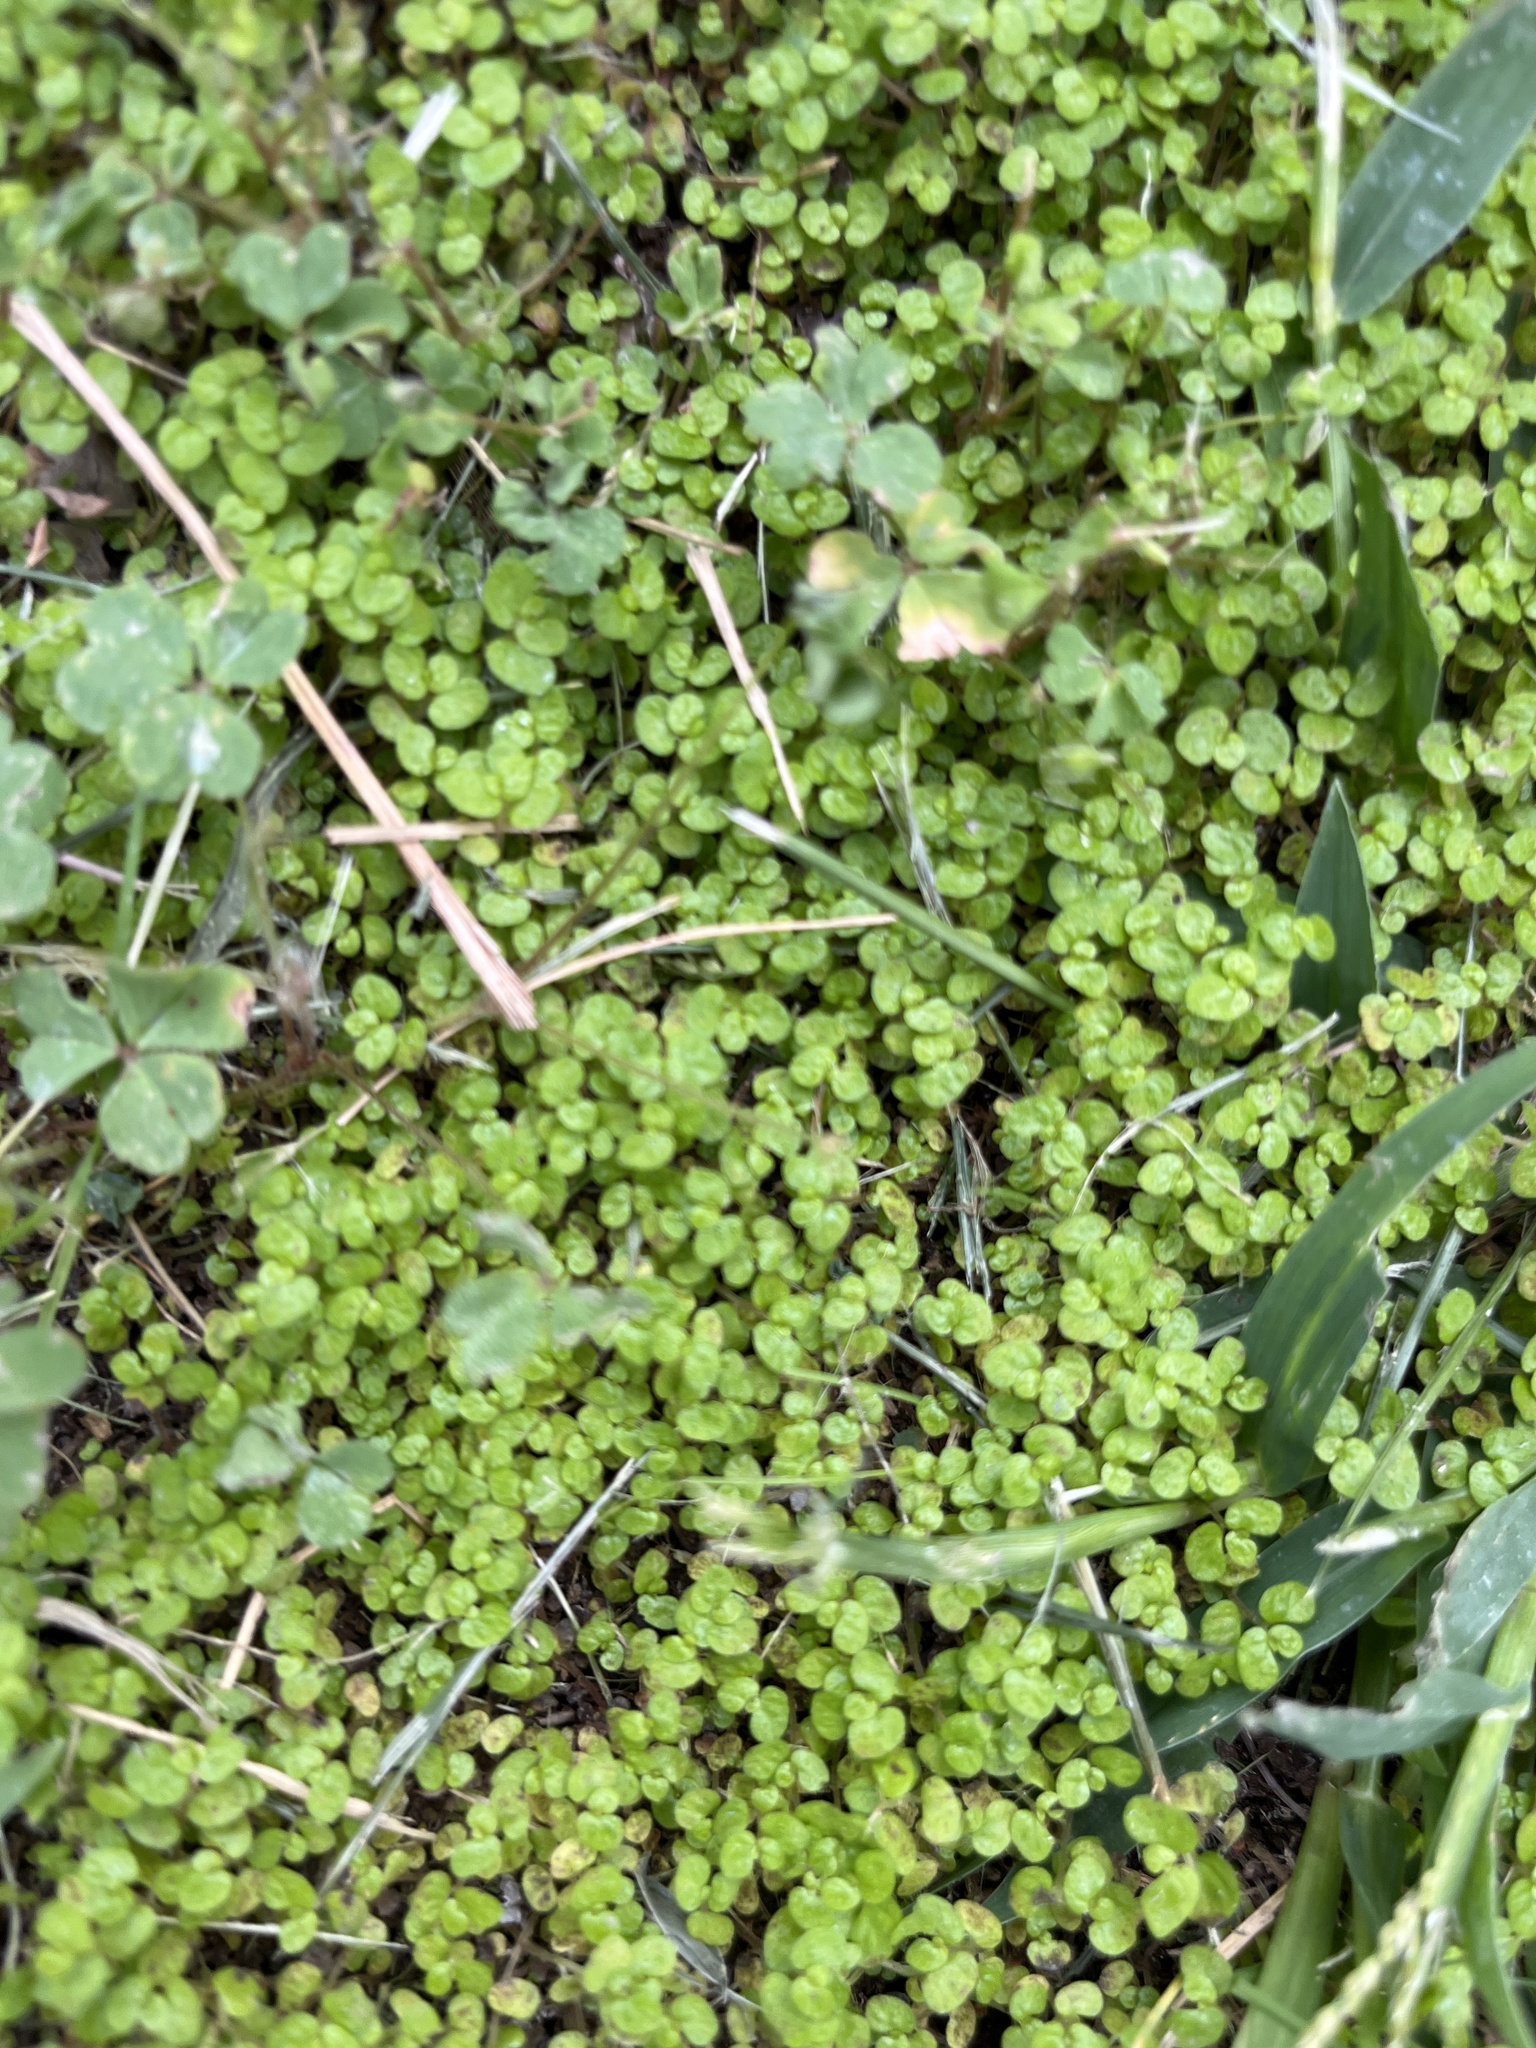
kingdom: Plantae
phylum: Tracheophyta
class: Magnoliopsida
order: Rosales
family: Urticaceae
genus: Soleirolia
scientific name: Soleirolia soleirolii
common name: Mind-your-own-business
